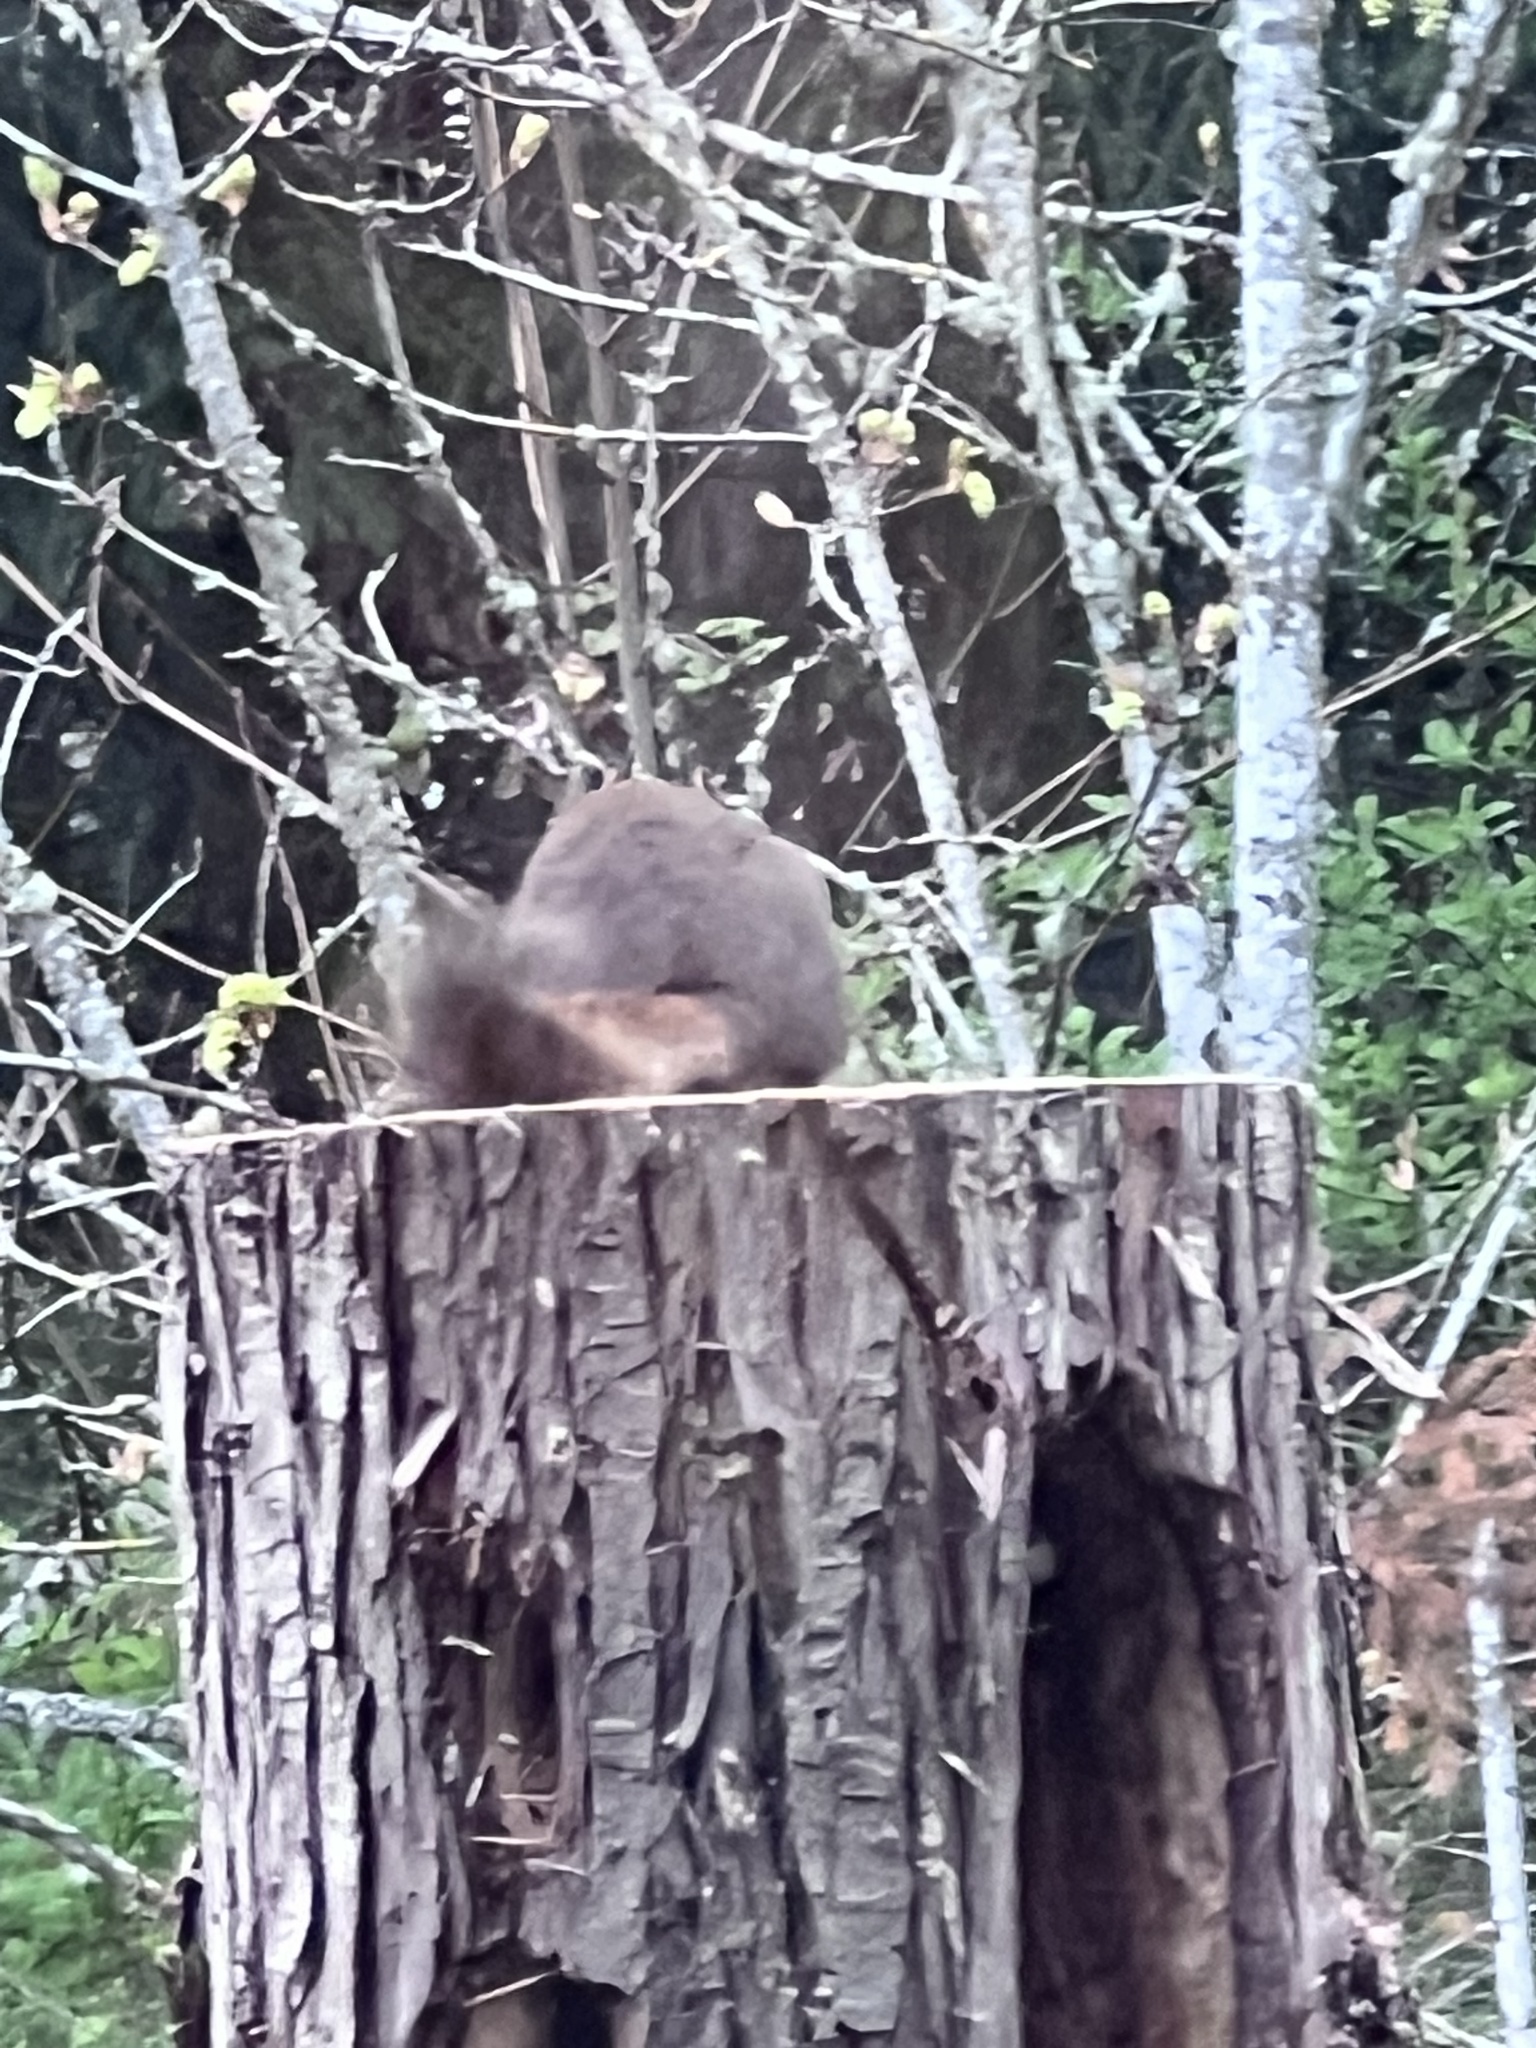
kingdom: Animalia
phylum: Chordata
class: Mammalia
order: Rodentia
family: Sciuridae
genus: Tamiasciurus
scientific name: Tamiasciurus douglasii
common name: Douglas's squirrel
